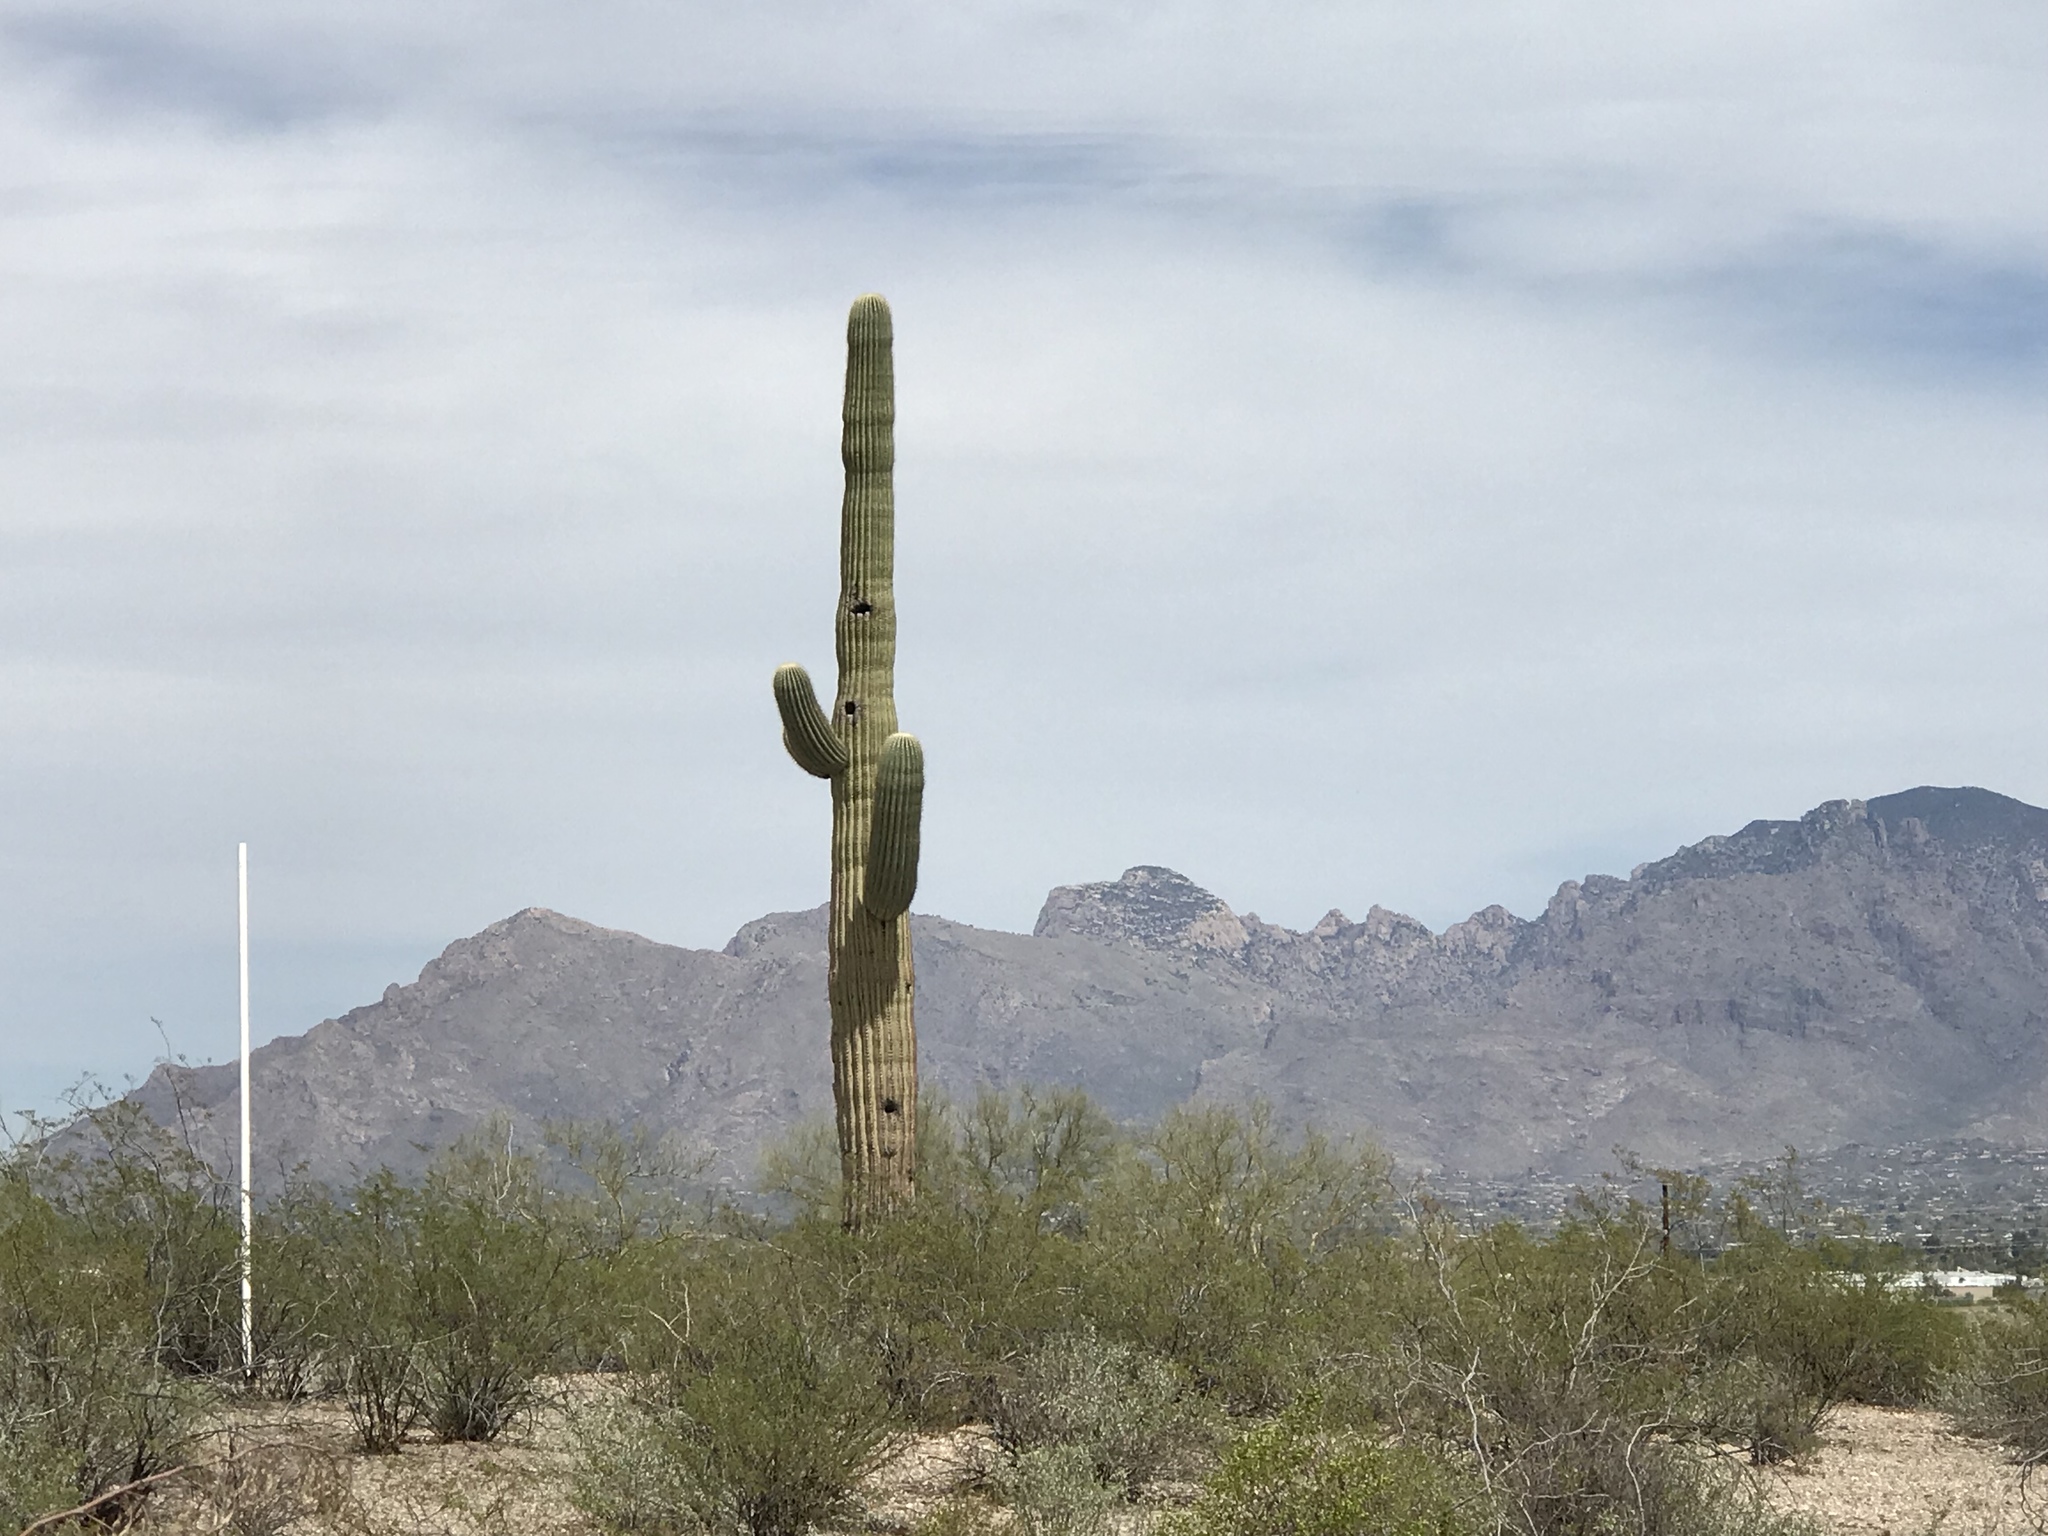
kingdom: Plantae
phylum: Tracheophyta
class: Magnoliopsida
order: Caryophyllales
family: Cactaceae
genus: Carnegiea
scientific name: Carnegiea gigantea
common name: Saguaro
